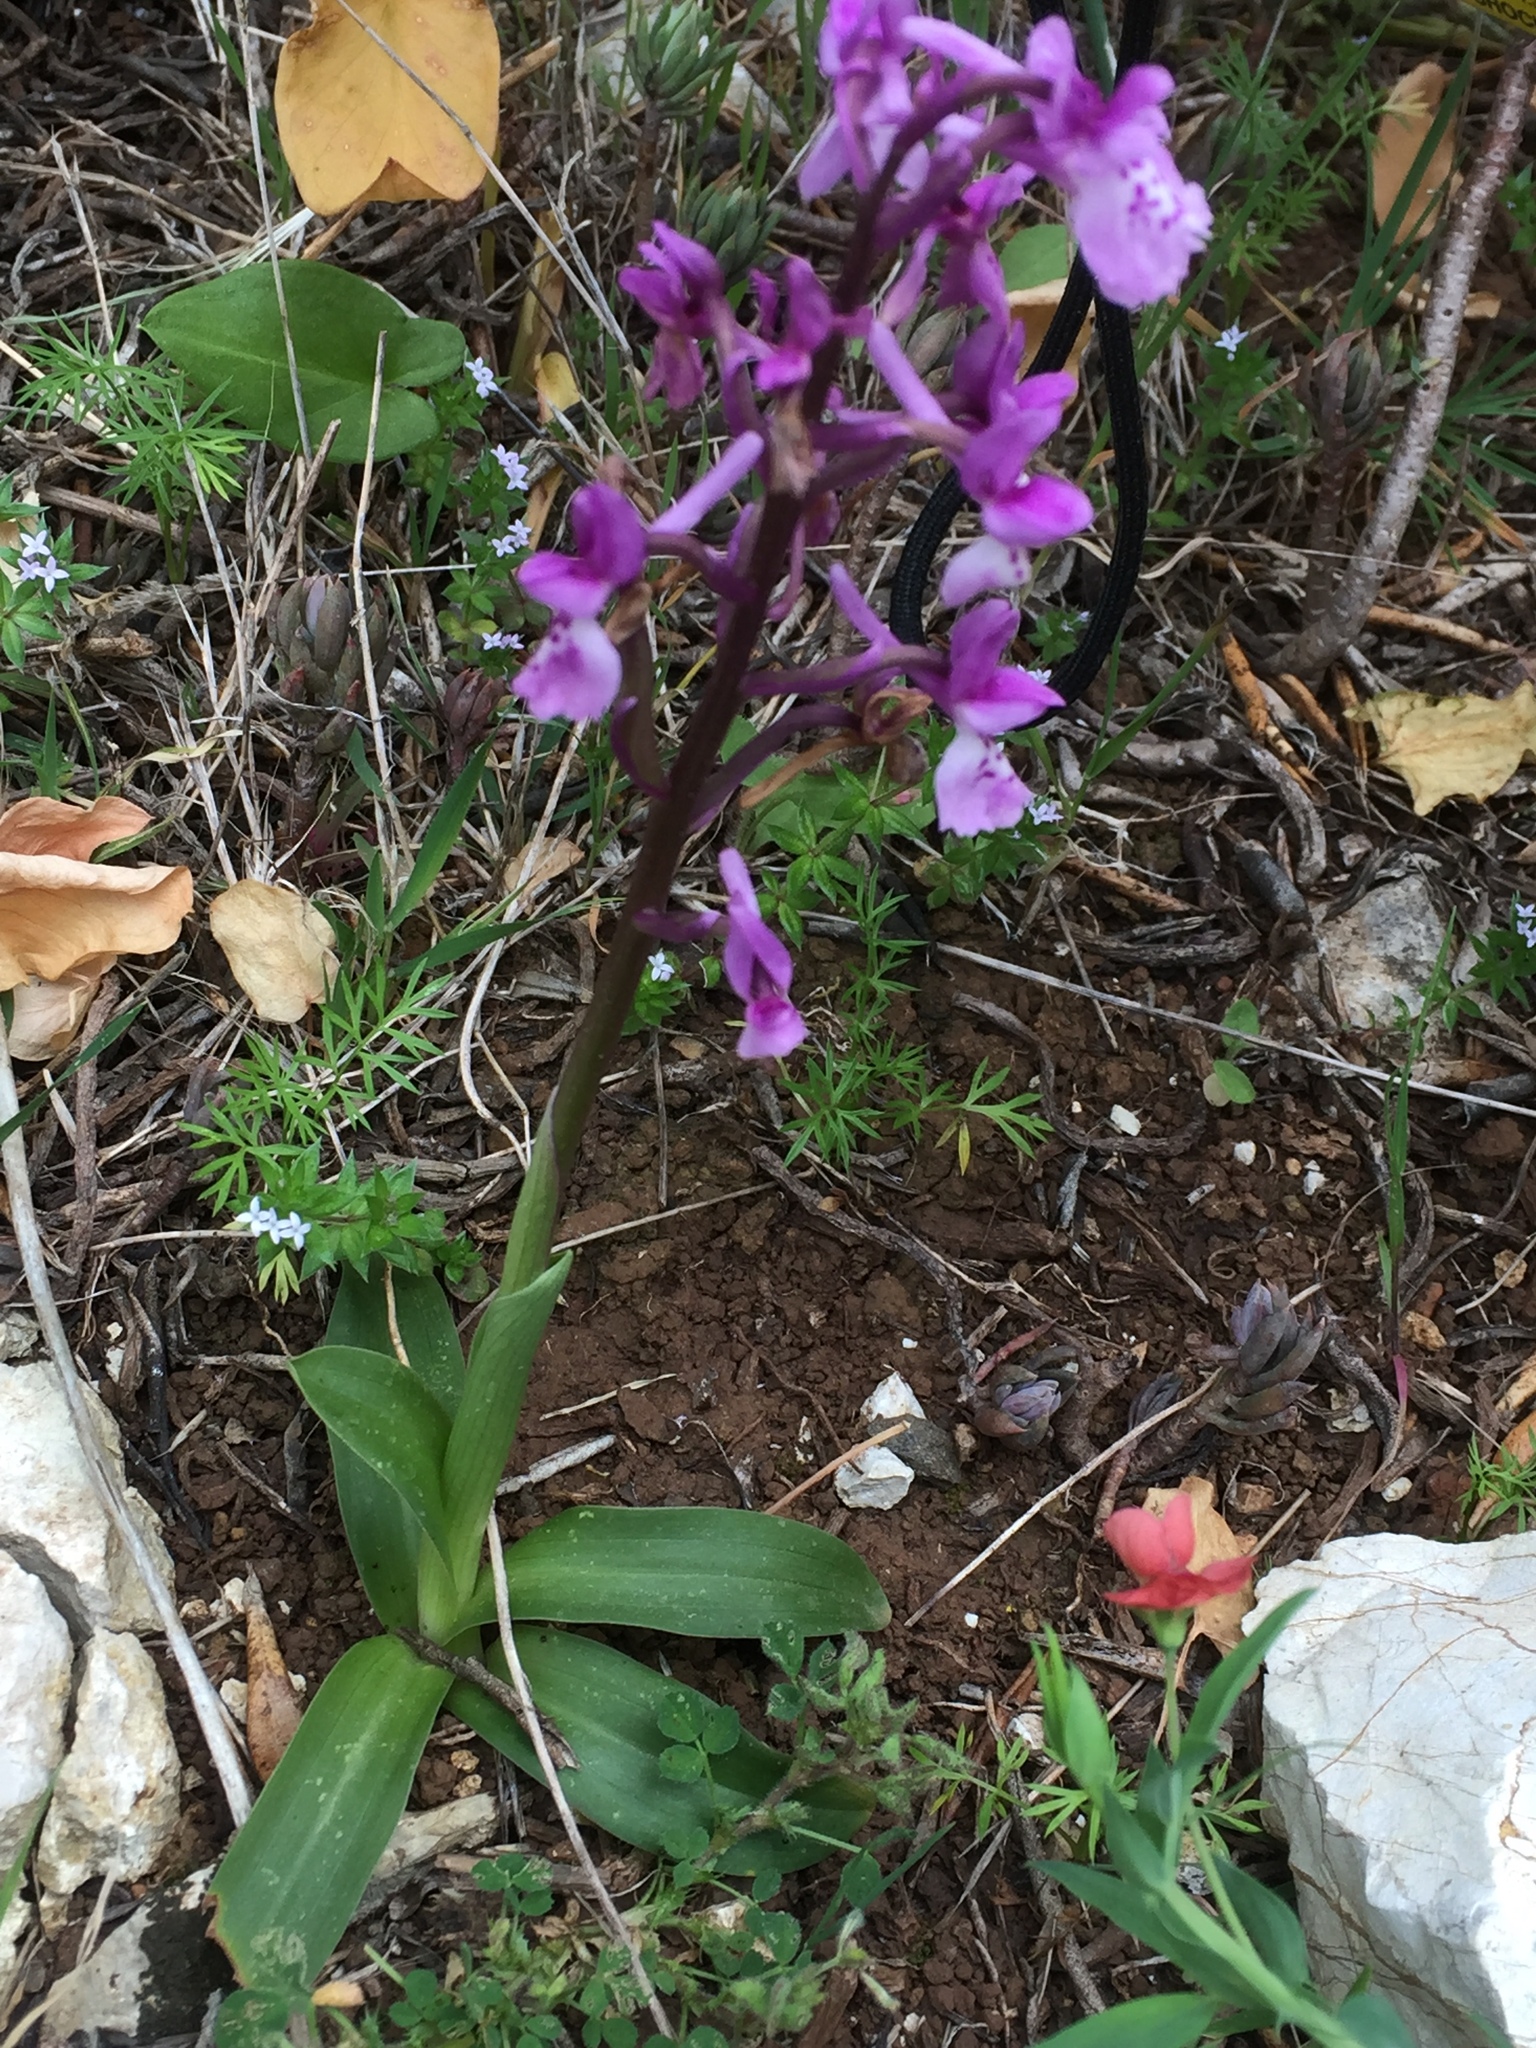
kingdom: Plantae
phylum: Tracheophyta
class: Liliopsida
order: Asparagales
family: Orchidaceae
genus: Orchis
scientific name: Orchis mascula
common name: Early-purple orchid
